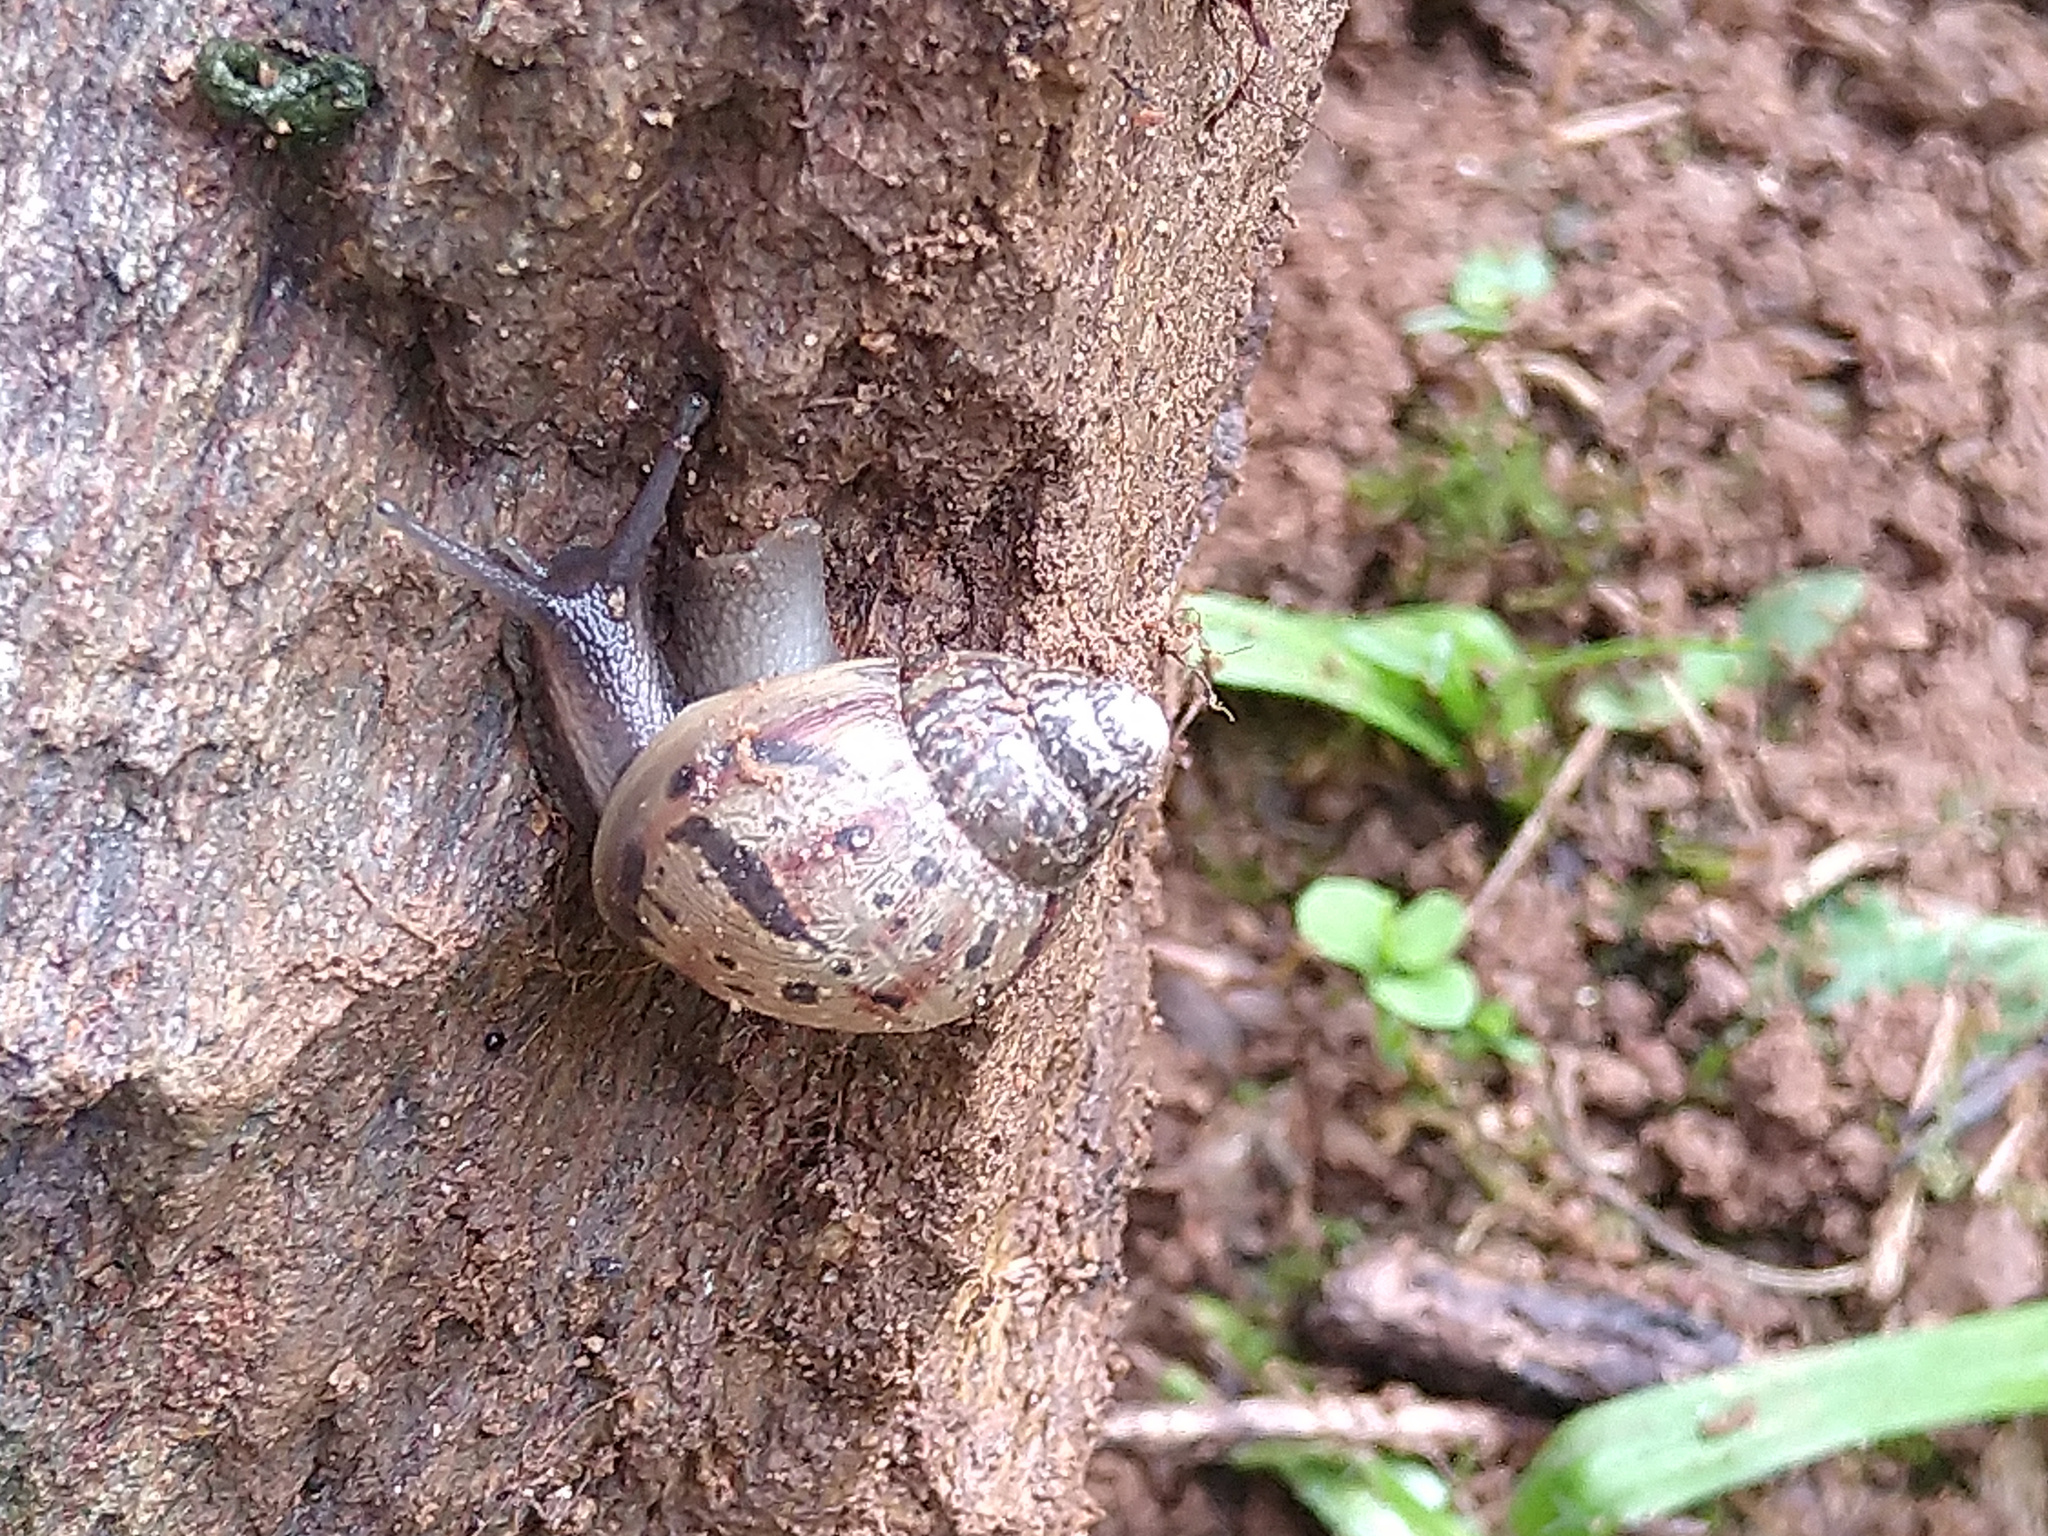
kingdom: Animalia
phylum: Mollusca
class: Gastropoda
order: Stylommatophora
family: Achatinidae
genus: Lissachatina
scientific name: Lissachatina fulica
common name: Giant african snail
